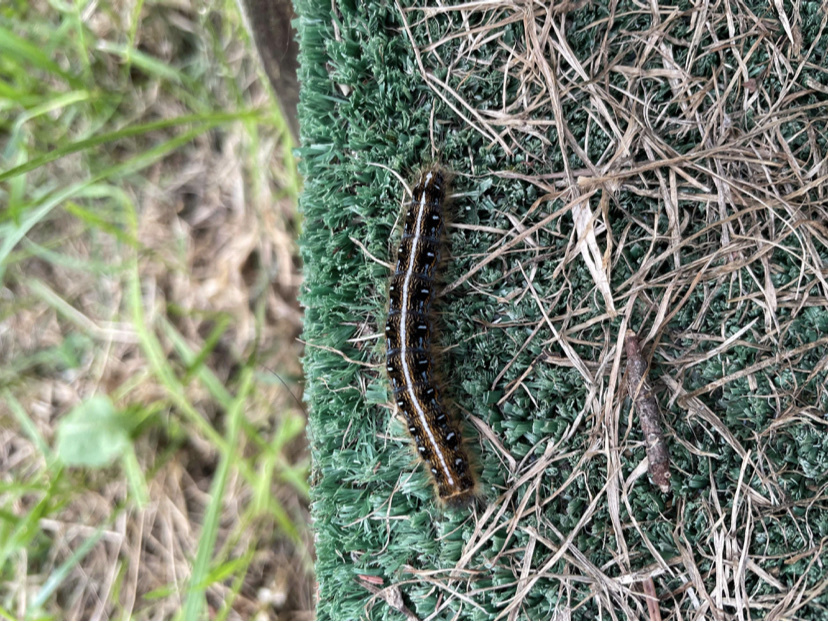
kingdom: Animalia
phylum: Arthropoda
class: Insecta
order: Lepidoptera
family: Lasiocampidae
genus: Malacosoma
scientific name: Malacosoma americana
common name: Eastern tent caterpillar moth
